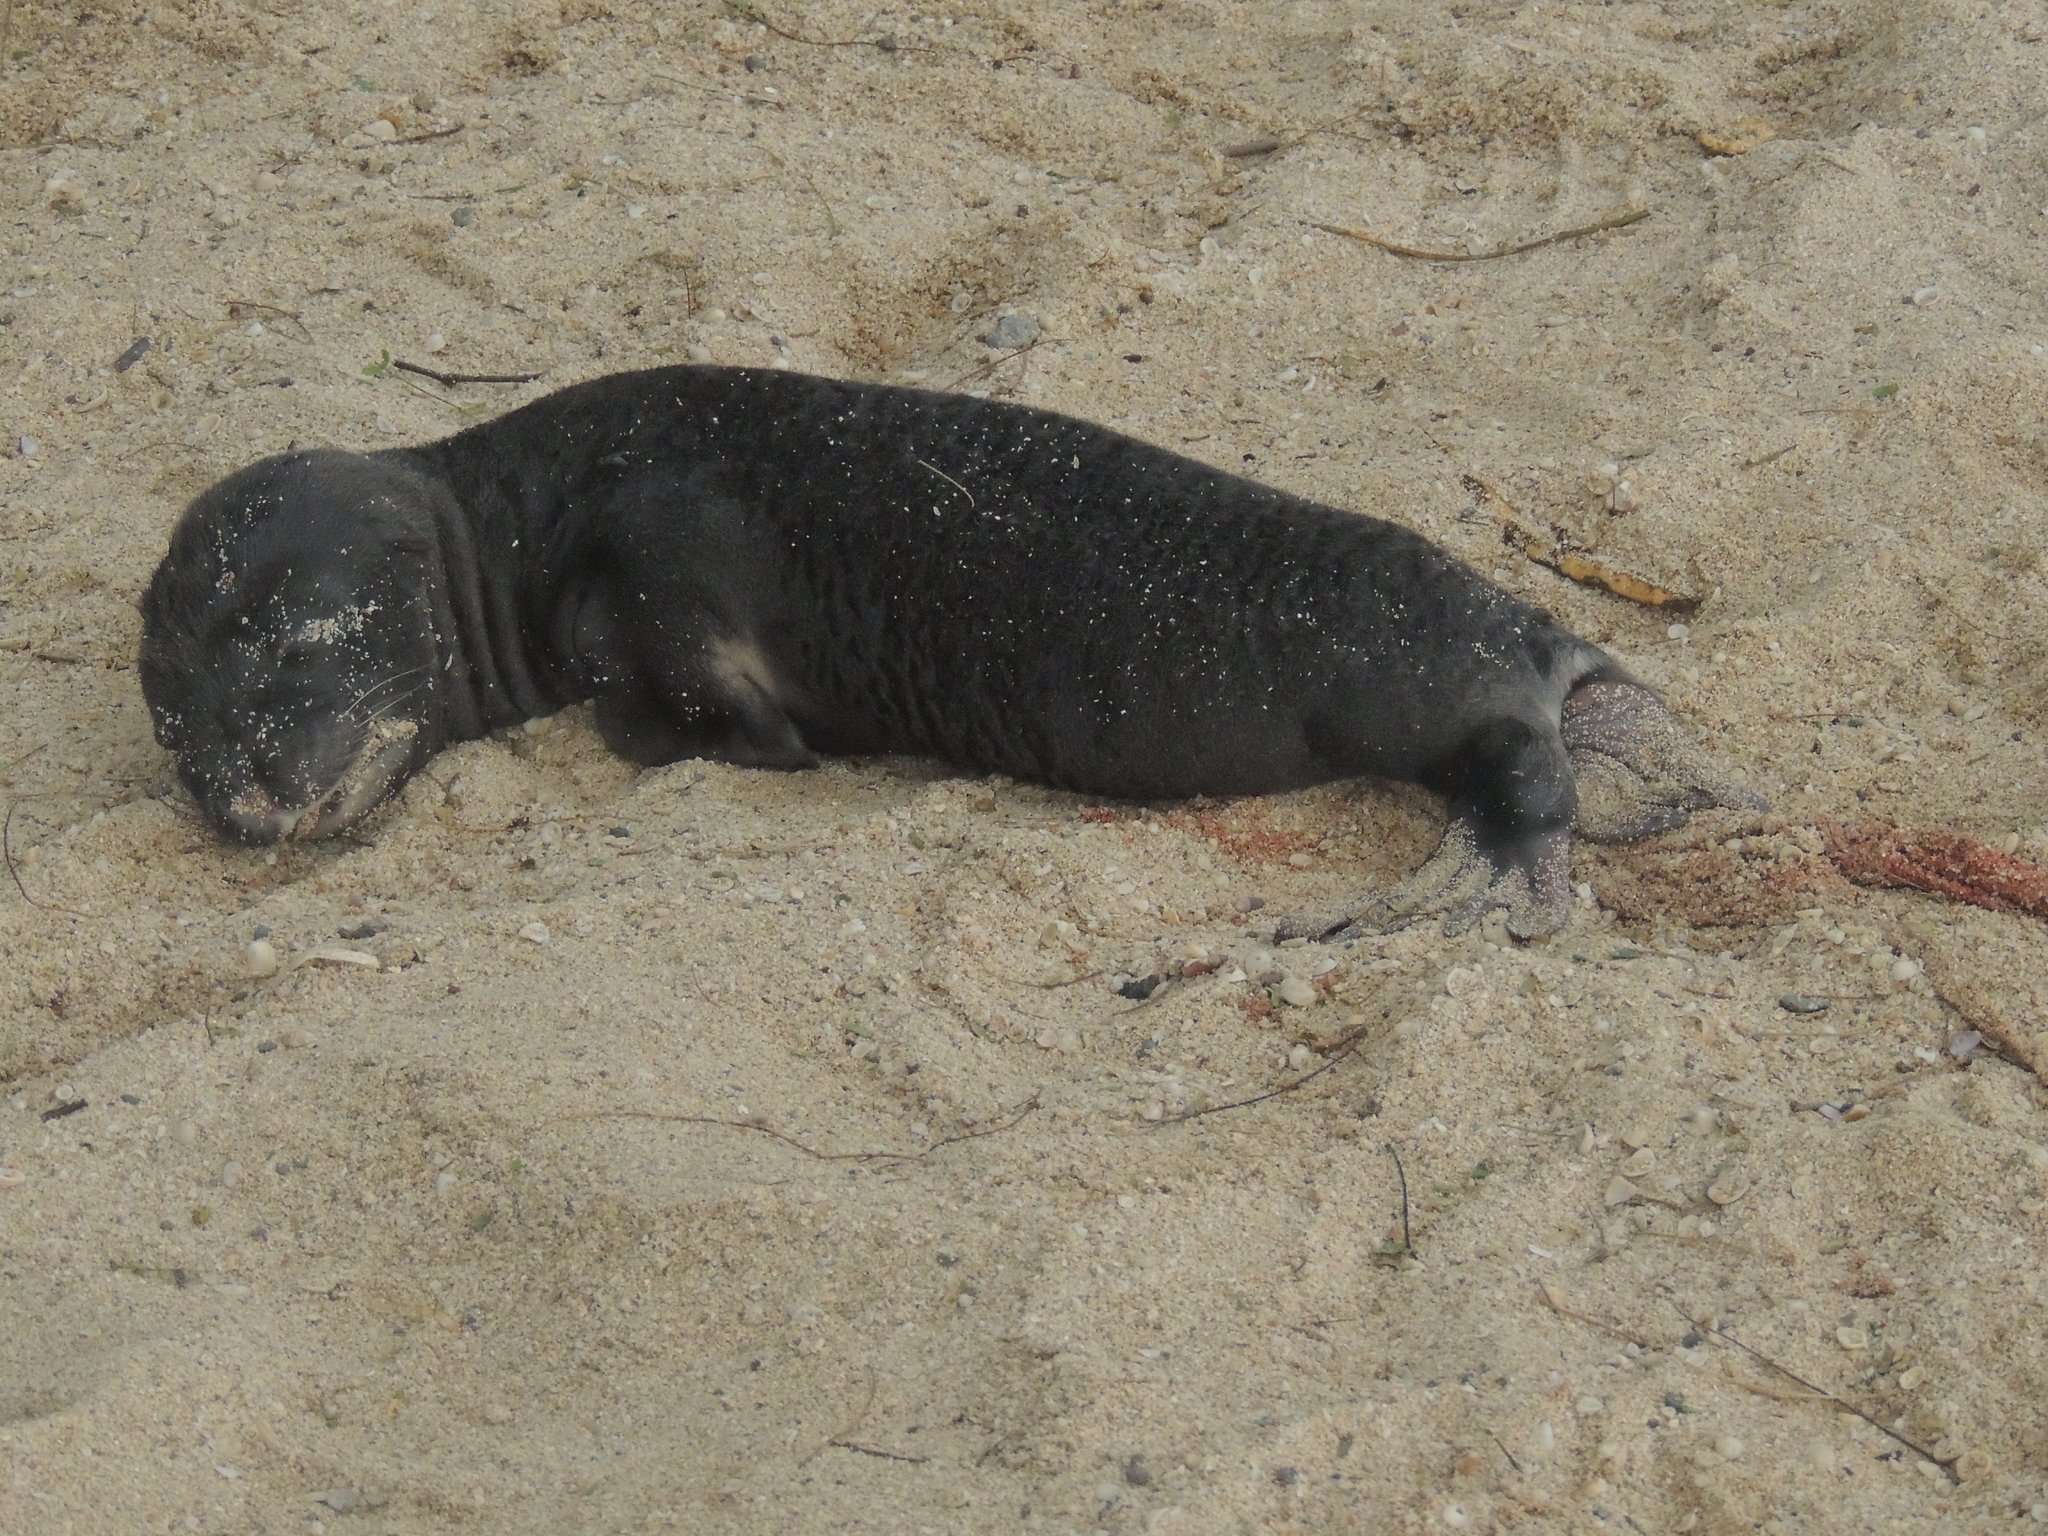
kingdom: Animalia
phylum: Chordata
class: Mammalia
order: Carnivora
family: Otariidae
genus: Zalophus
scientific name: Zalophus wollebaeki
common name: Galapagos sea lion
